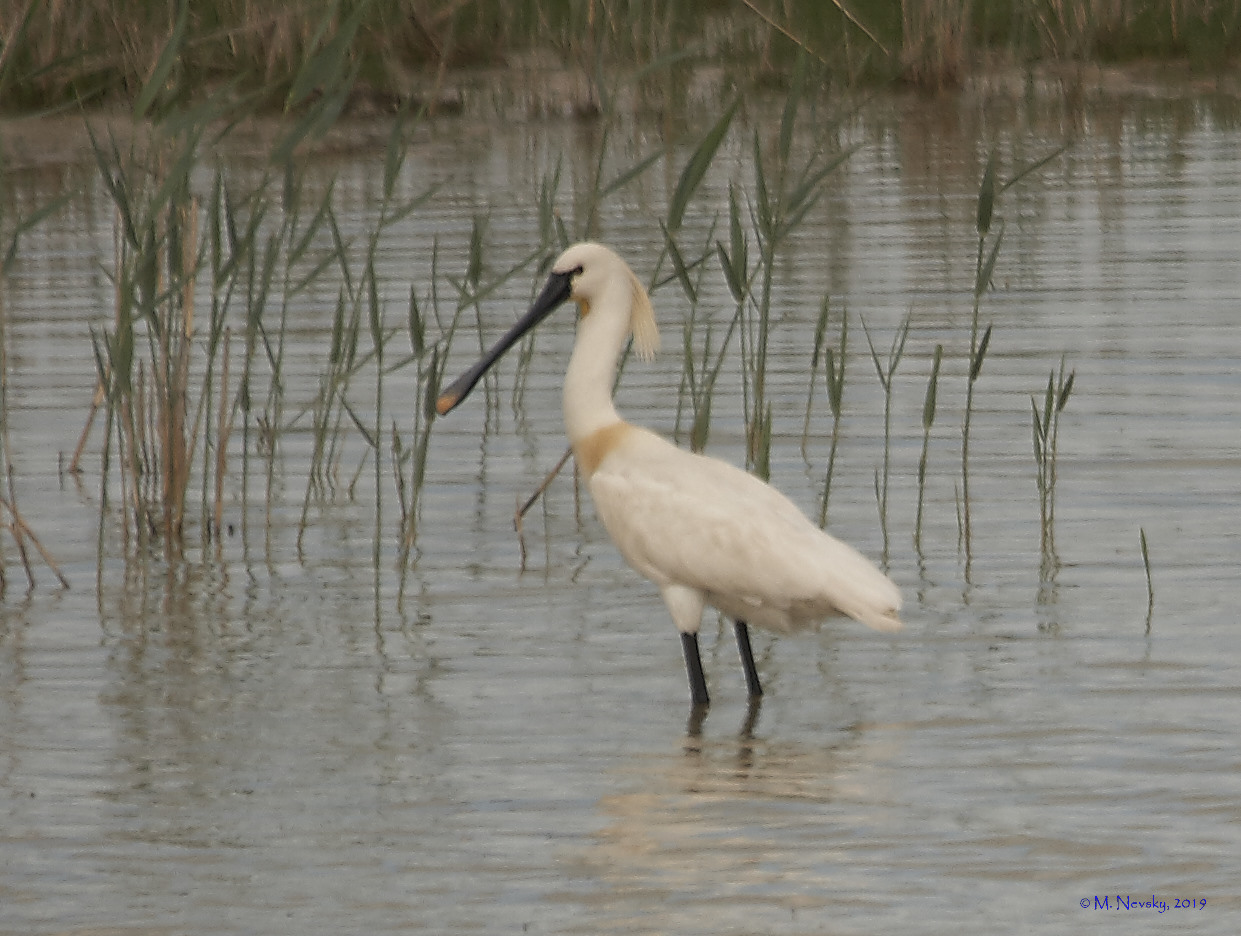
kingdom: Animalia
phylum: Chordata
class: Aves
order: Pelecaniformes
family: Threskiornithidae
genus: Platalea
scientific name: Platalea leucorodia
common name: Eurasian spoonbill
